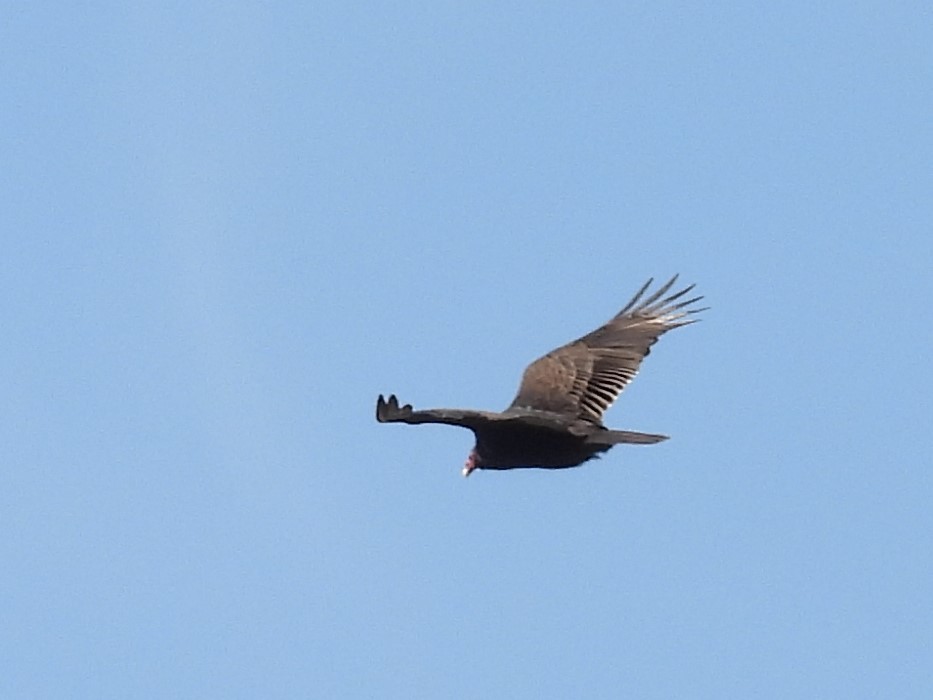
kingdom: Animalia
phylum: Chordata
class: Aves
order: Accipitriformes
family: Cathartidae
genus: Cathartes
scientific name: Cathartes aura
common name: Turkey vulture
